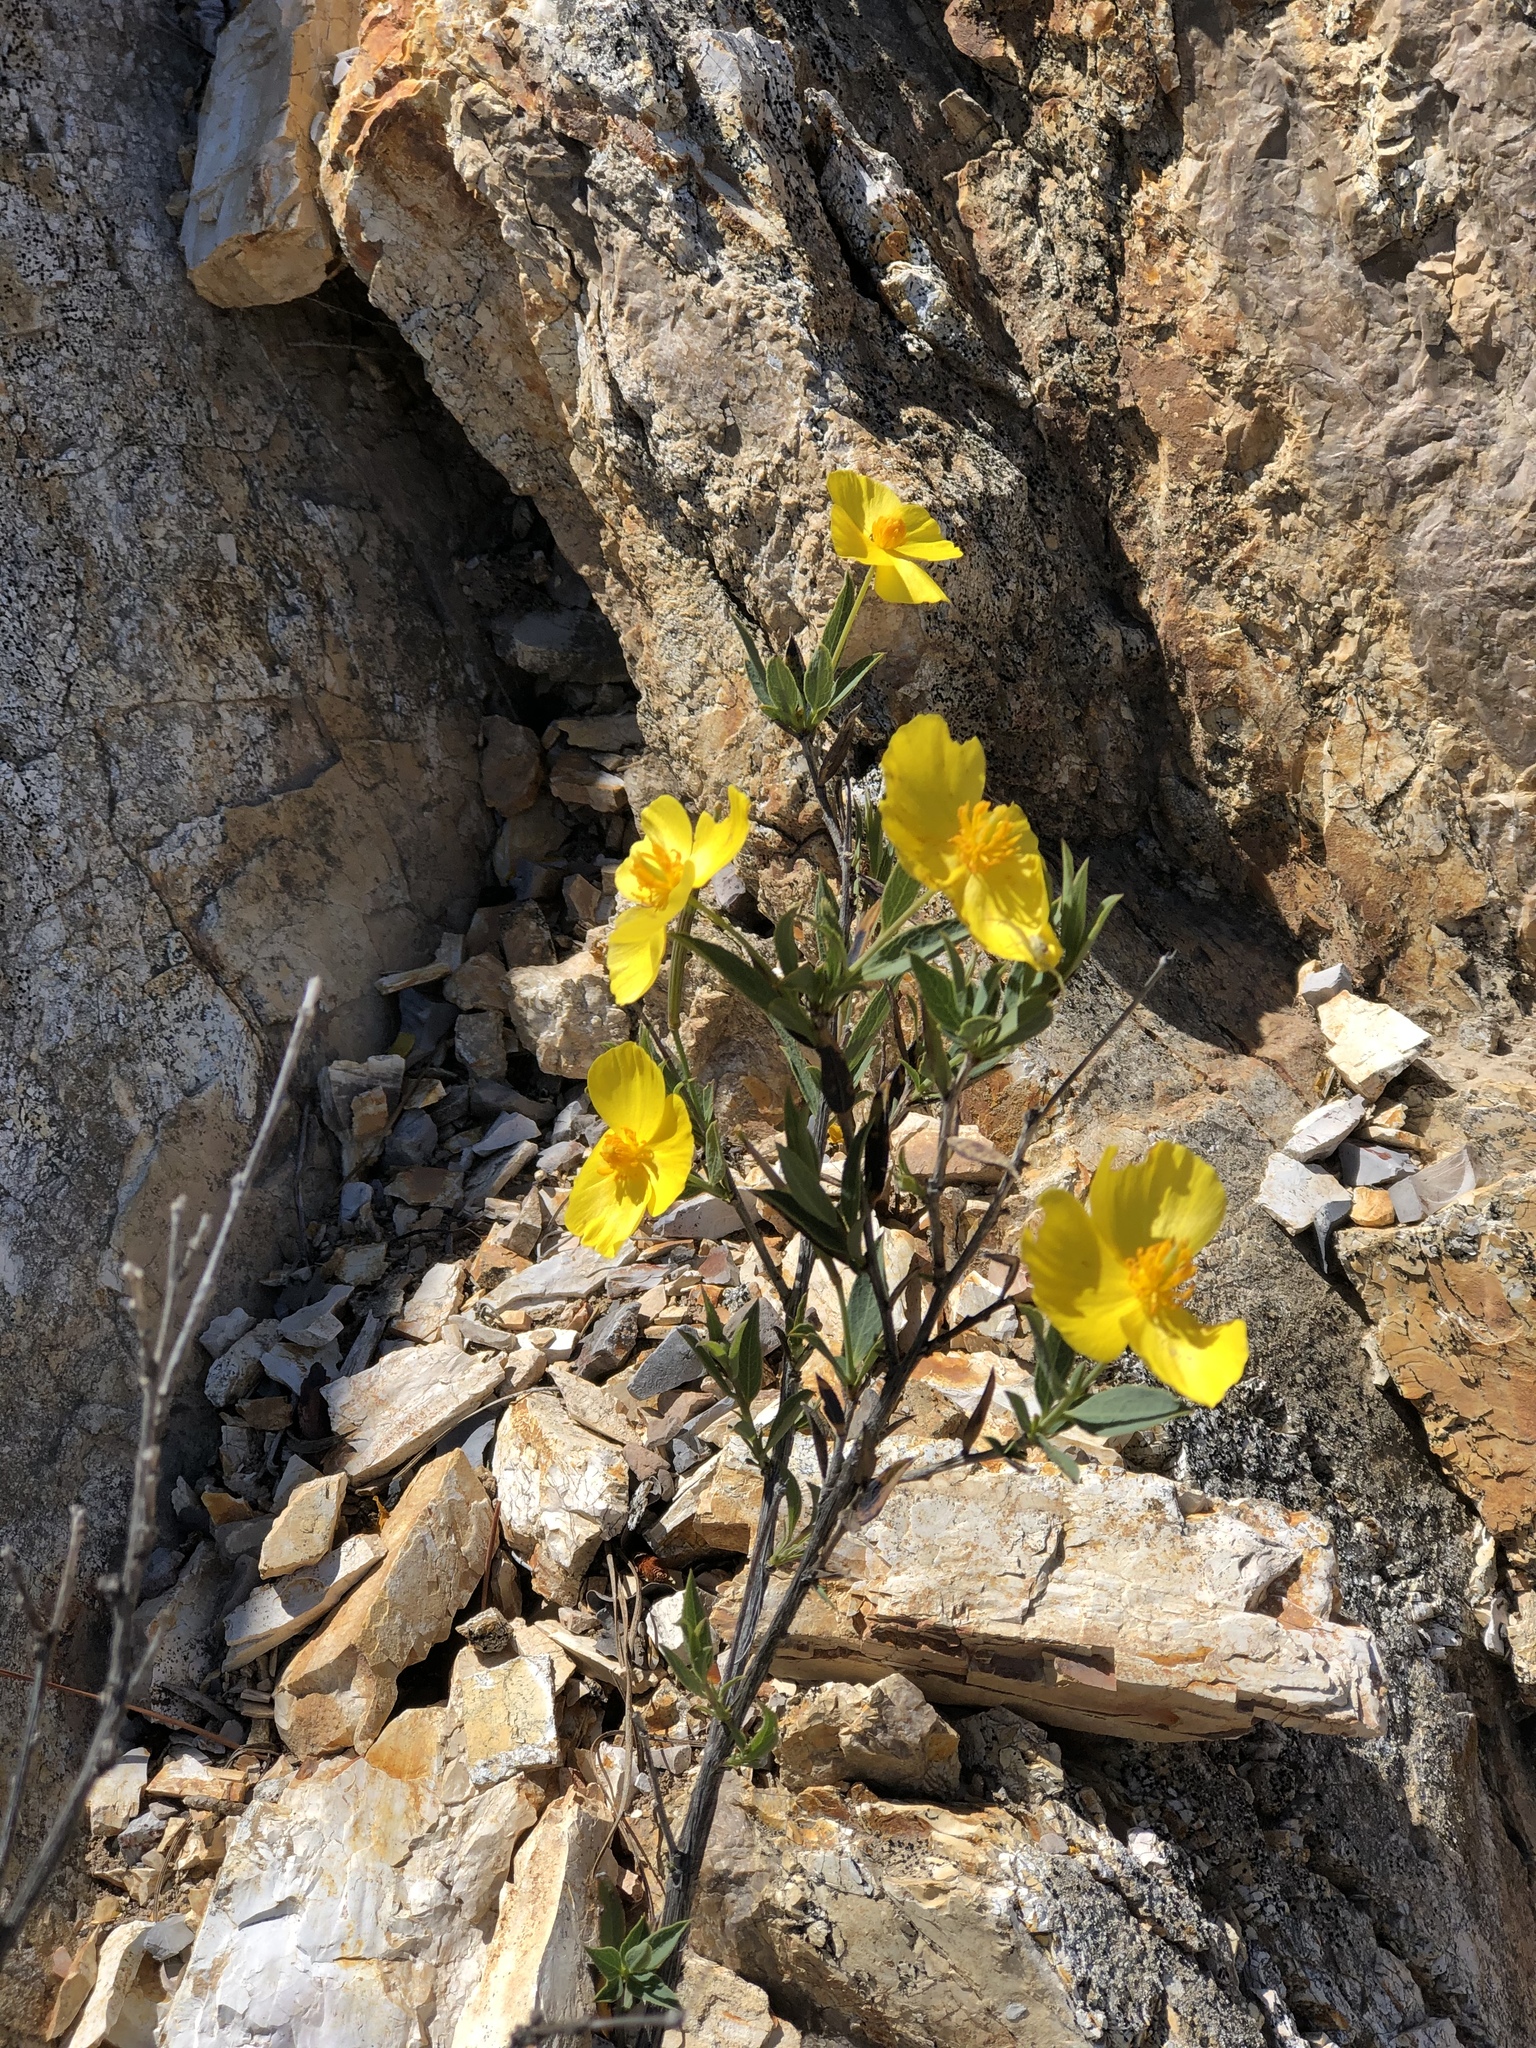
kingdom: Plantae
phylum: Tracheophyta
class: Magnoliopsida
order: Ranunculales
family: Papaveraceae
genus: Dendromecon
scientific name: Dendromecon rigida
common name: Tree poppy
